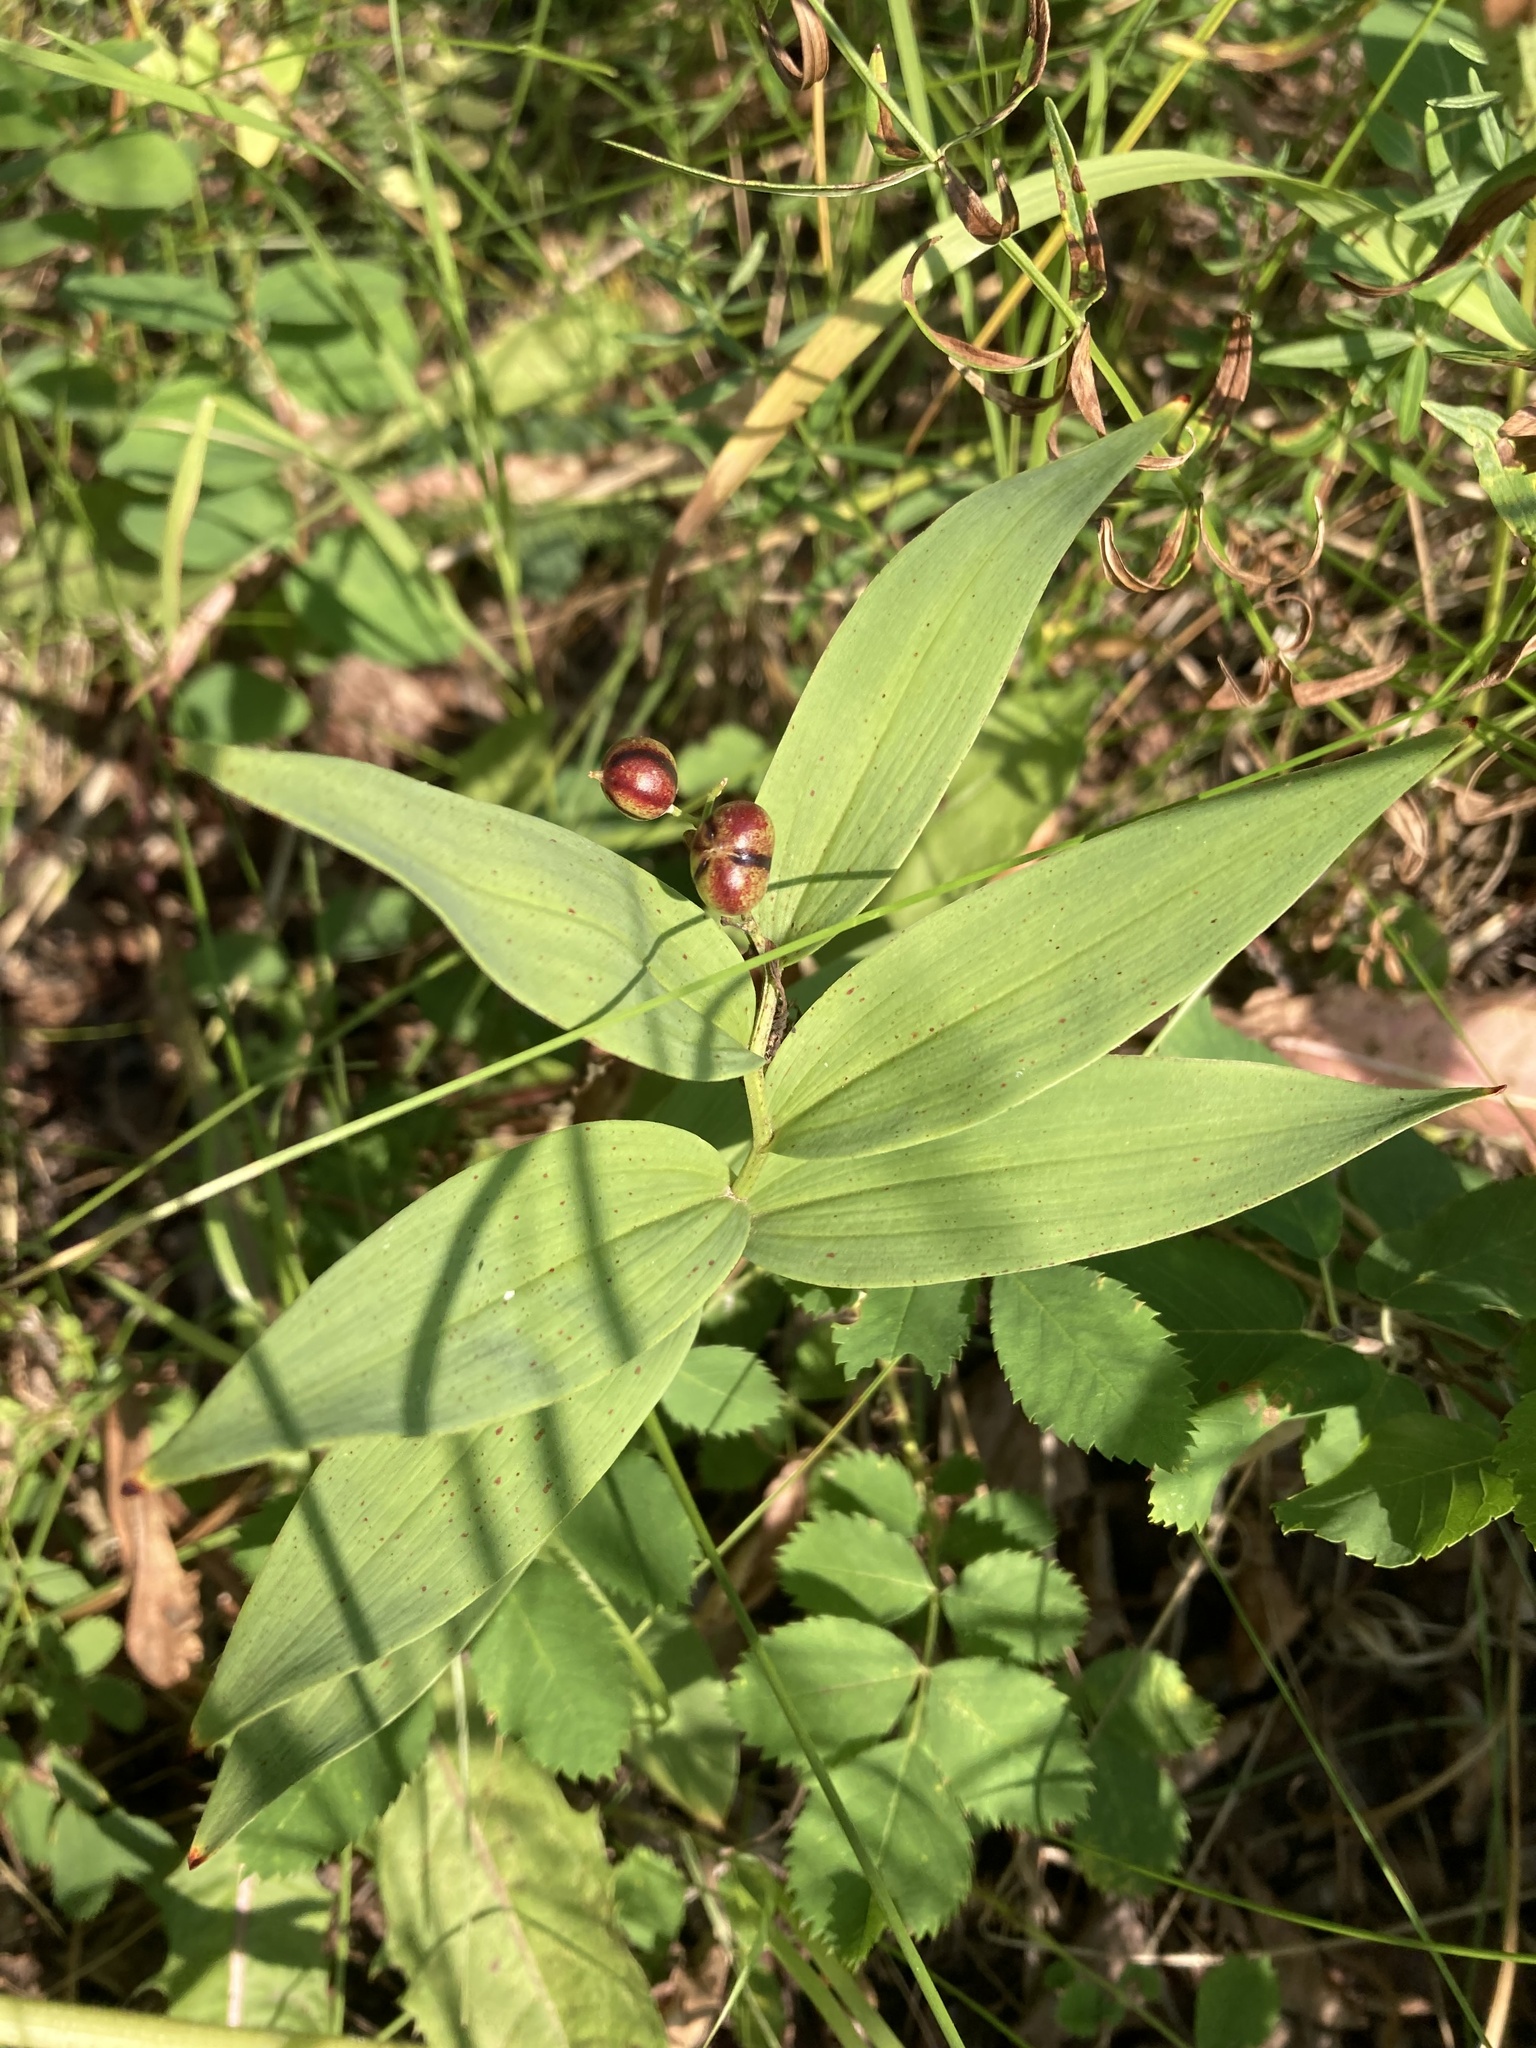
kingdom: Plantae
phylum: Tracheophyta
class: Liliopsida
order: Asparagales
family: Asparagaceae
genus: Maianthemum
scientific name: Maianthemum stellatum
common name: Little false solomon's seal
